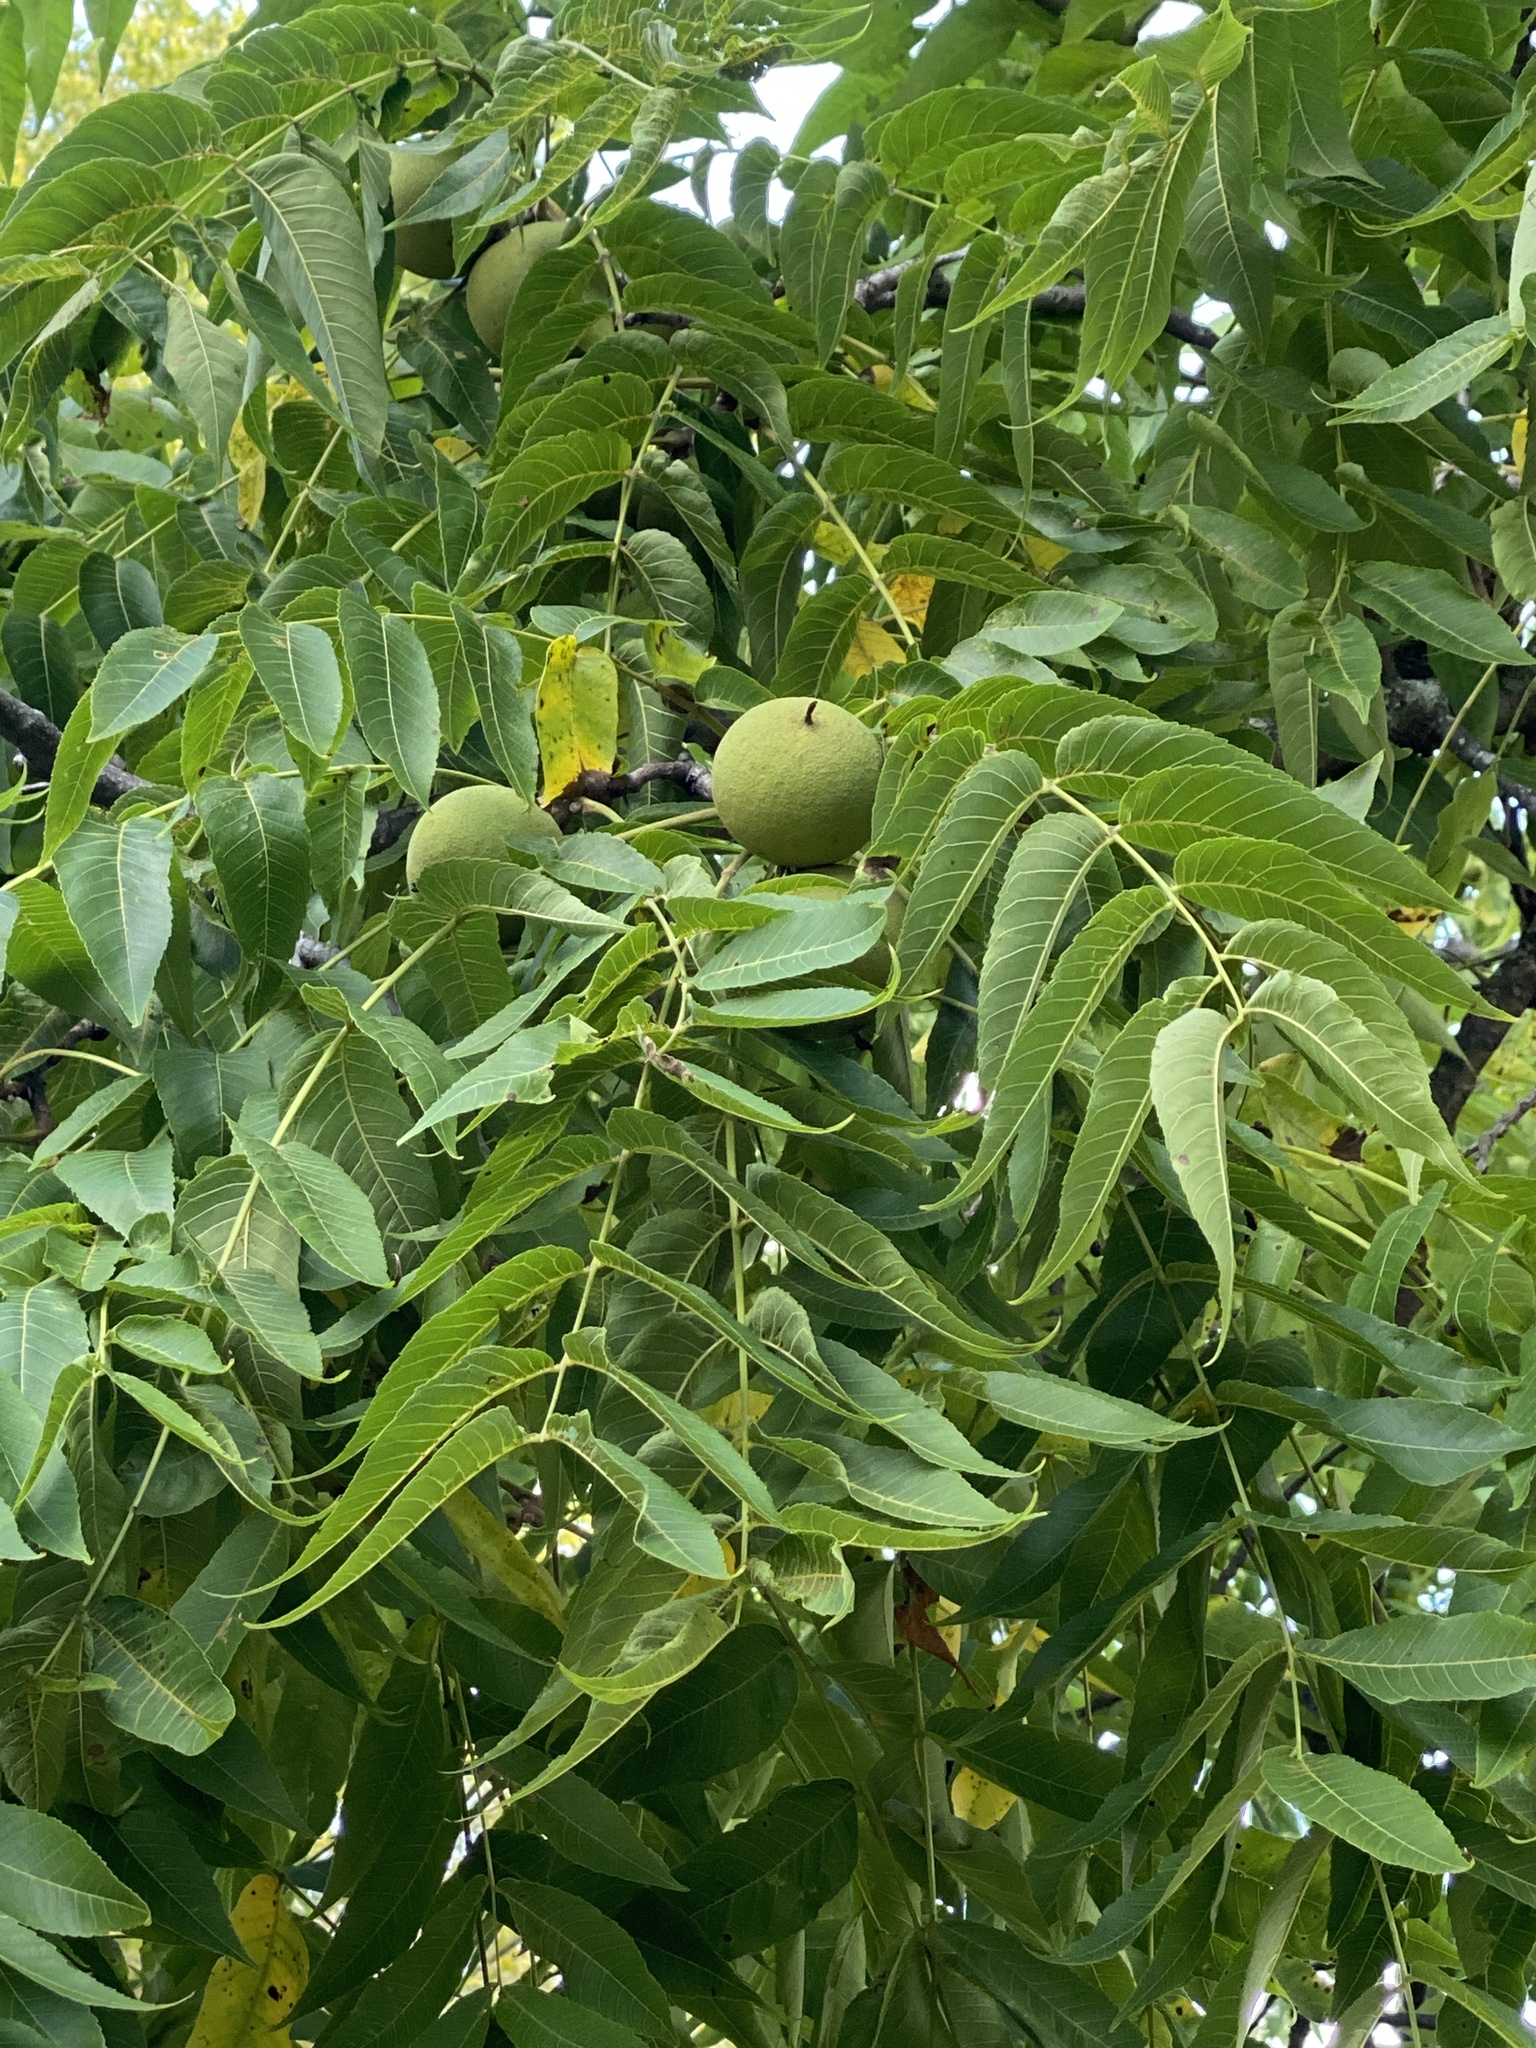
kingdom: Plantae
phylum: Tracheophyta
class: Magnoliopsida
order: Fagales
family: Juglandaceae
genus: Juglans
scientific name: Juglans nigra
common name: Black walnut
